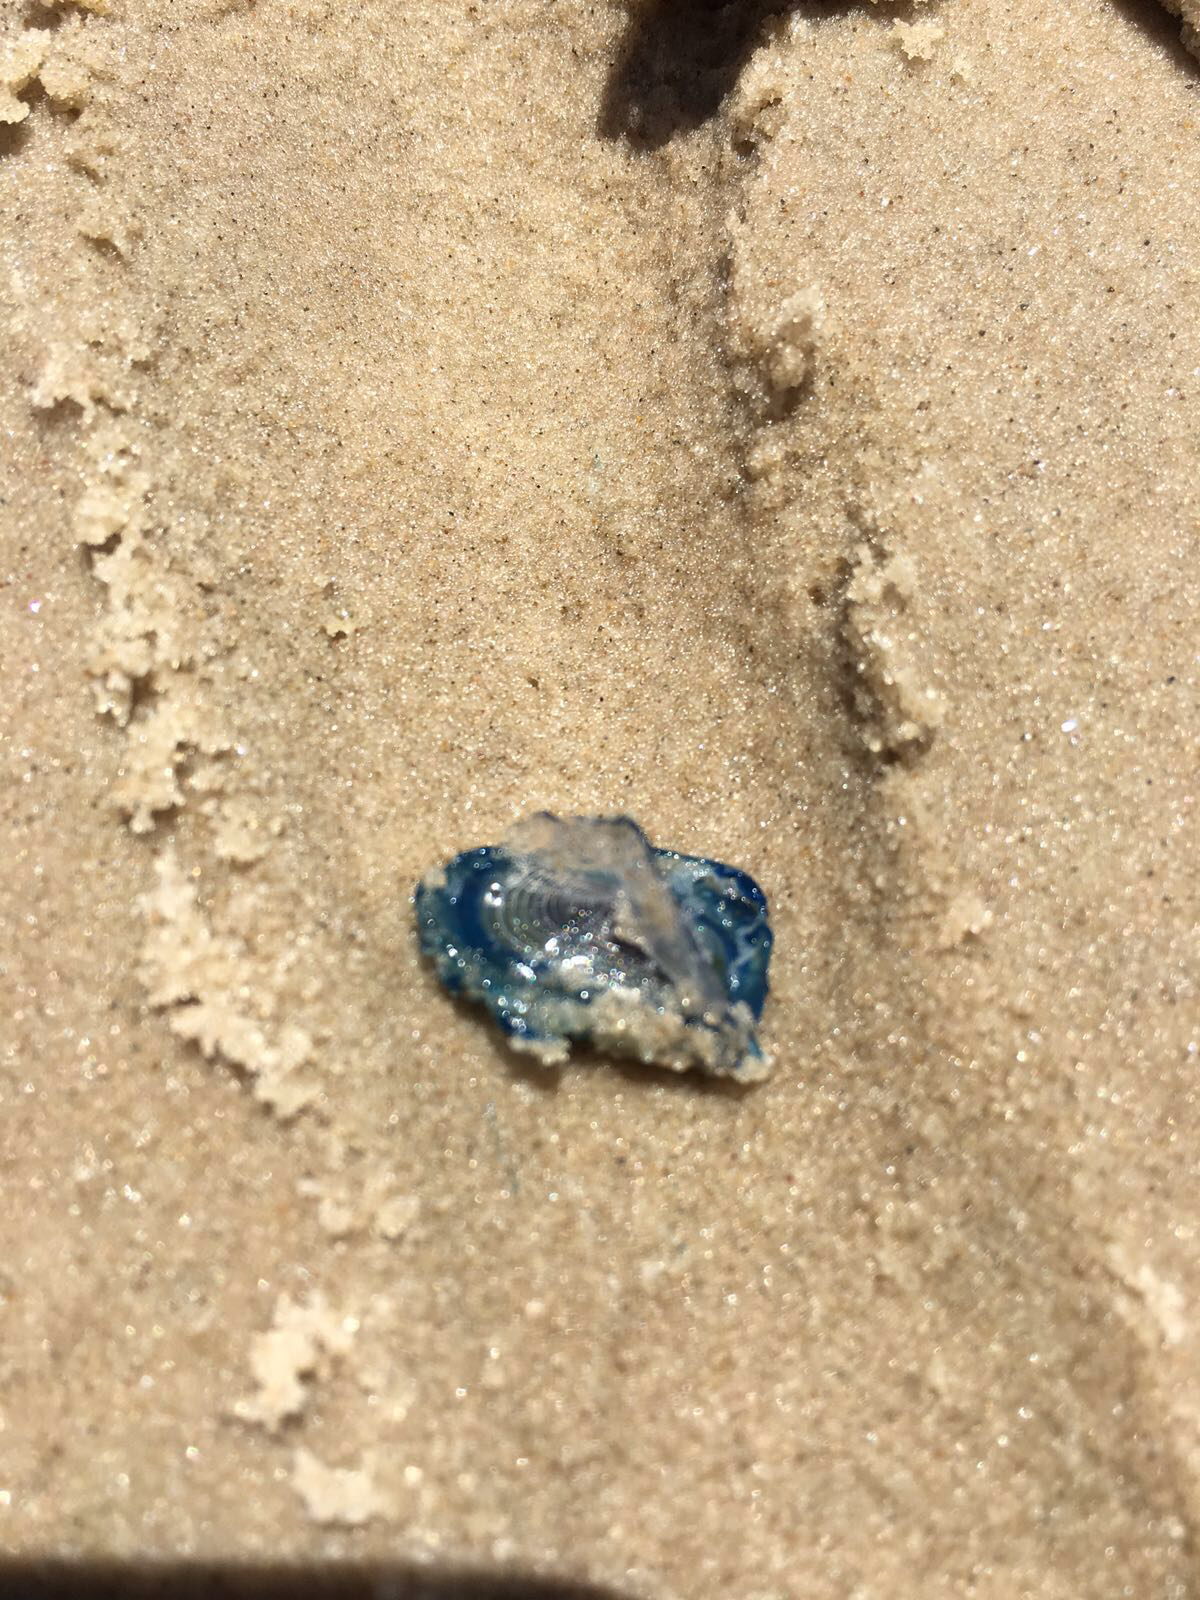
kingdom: Animalia
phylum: Cnidaria
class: Hydrozoa
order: Anthoathecata
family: Porpitidae
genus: Velella
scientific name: Velella velella
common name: By-the-wind-sailor
